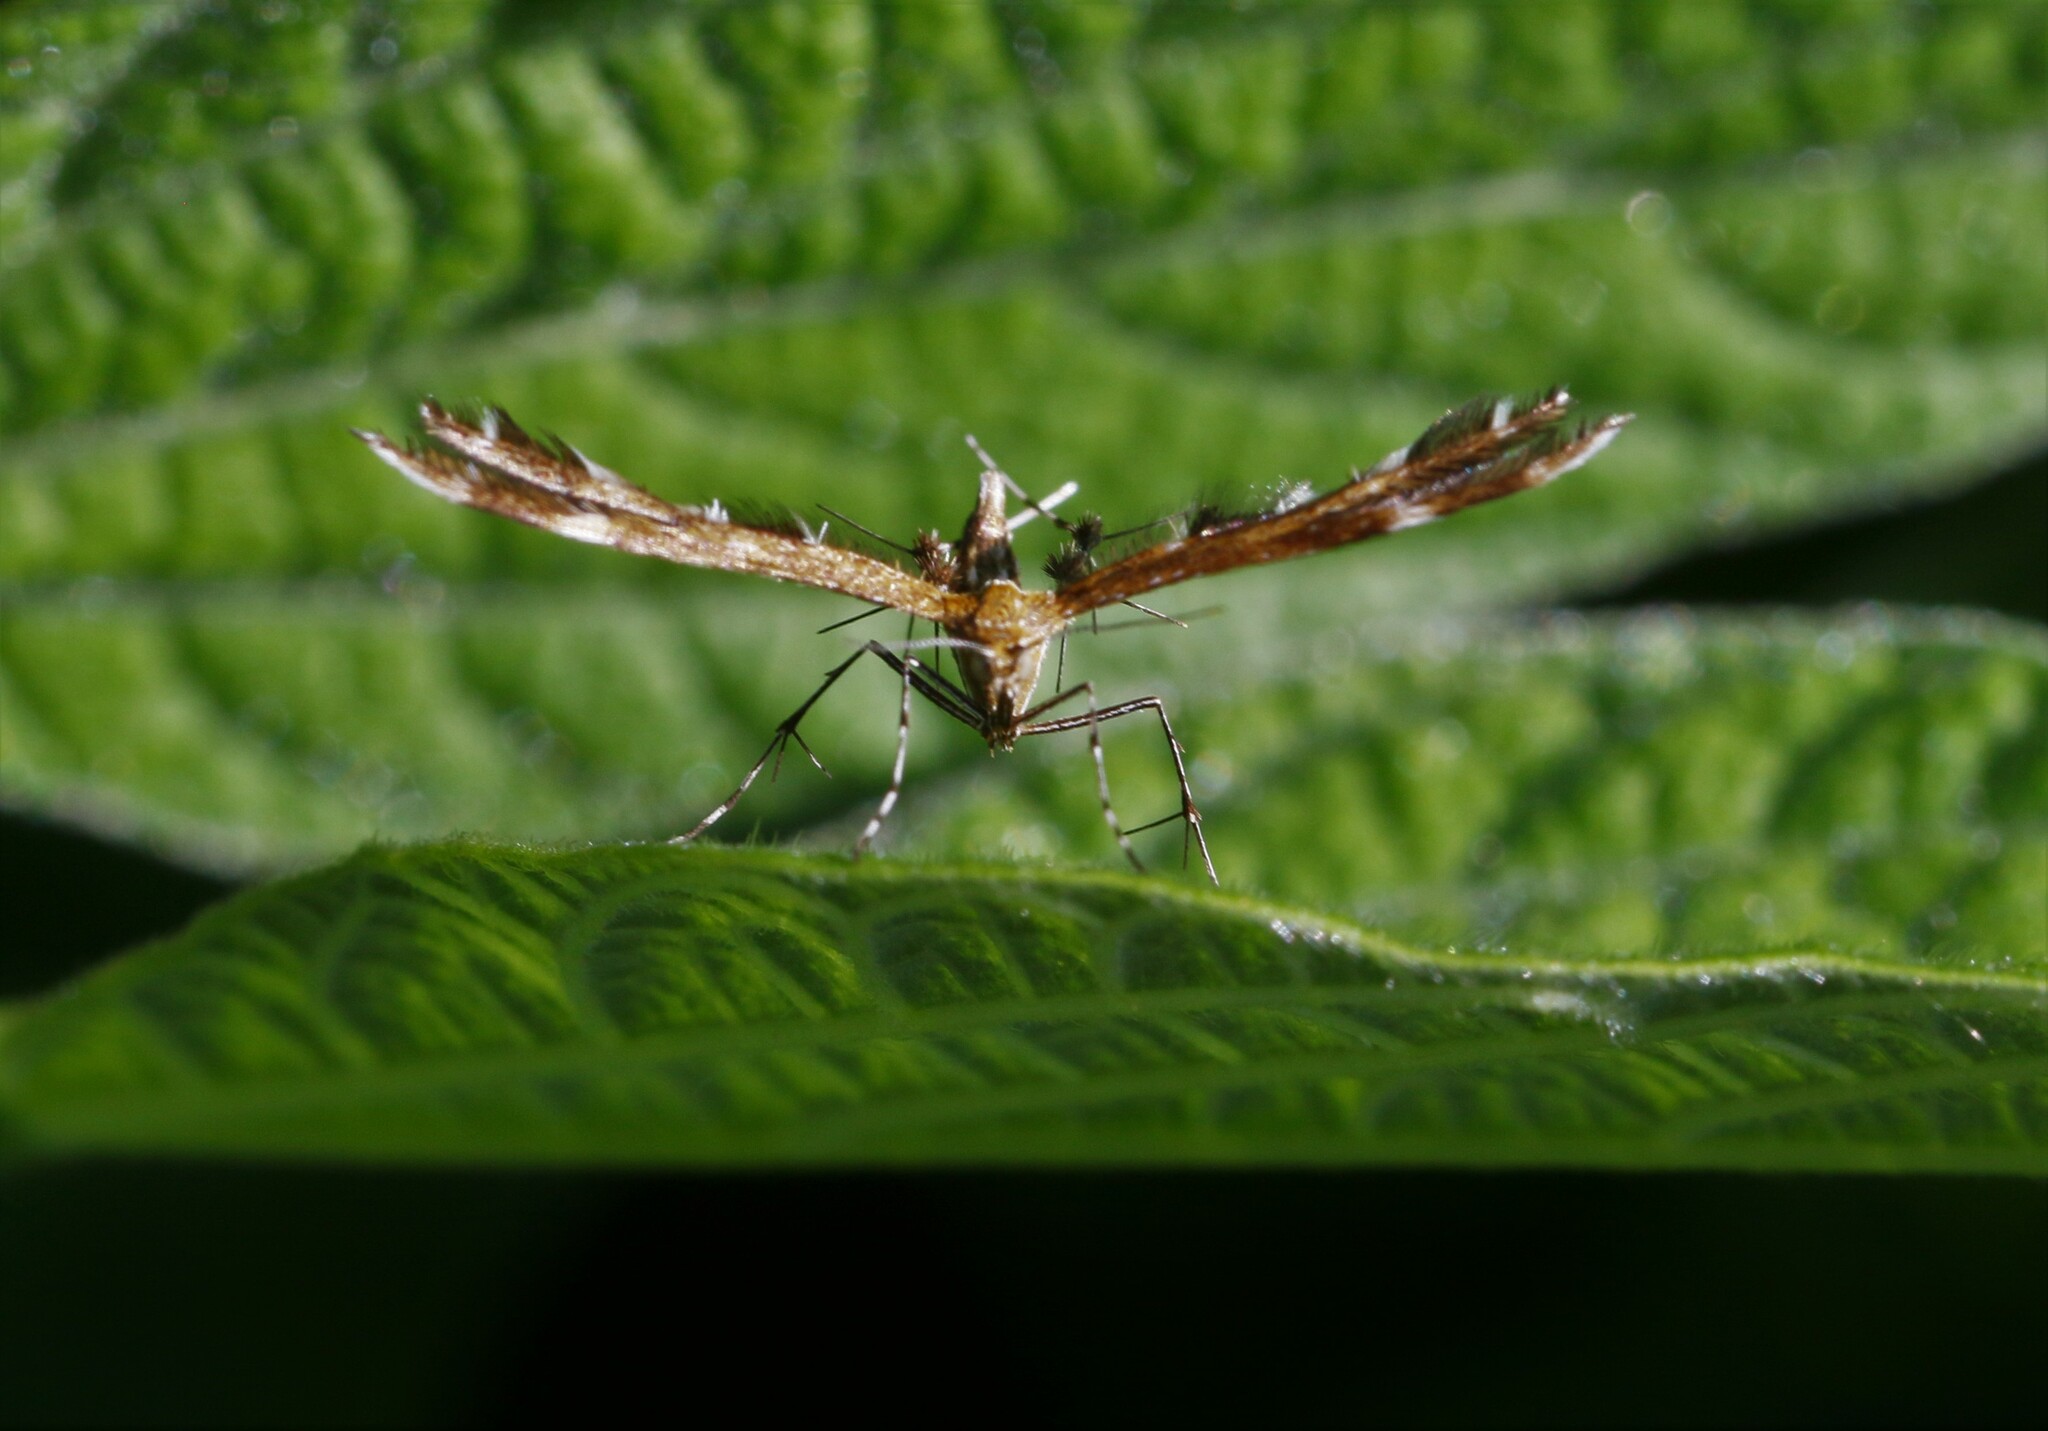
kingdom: Animalia
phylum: Arthropoda
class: Insecta
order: Lepidoptera
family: Pterophoridae
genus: Dejongia
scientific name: Dejongia lobidactylus
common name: Lobed plume moth
